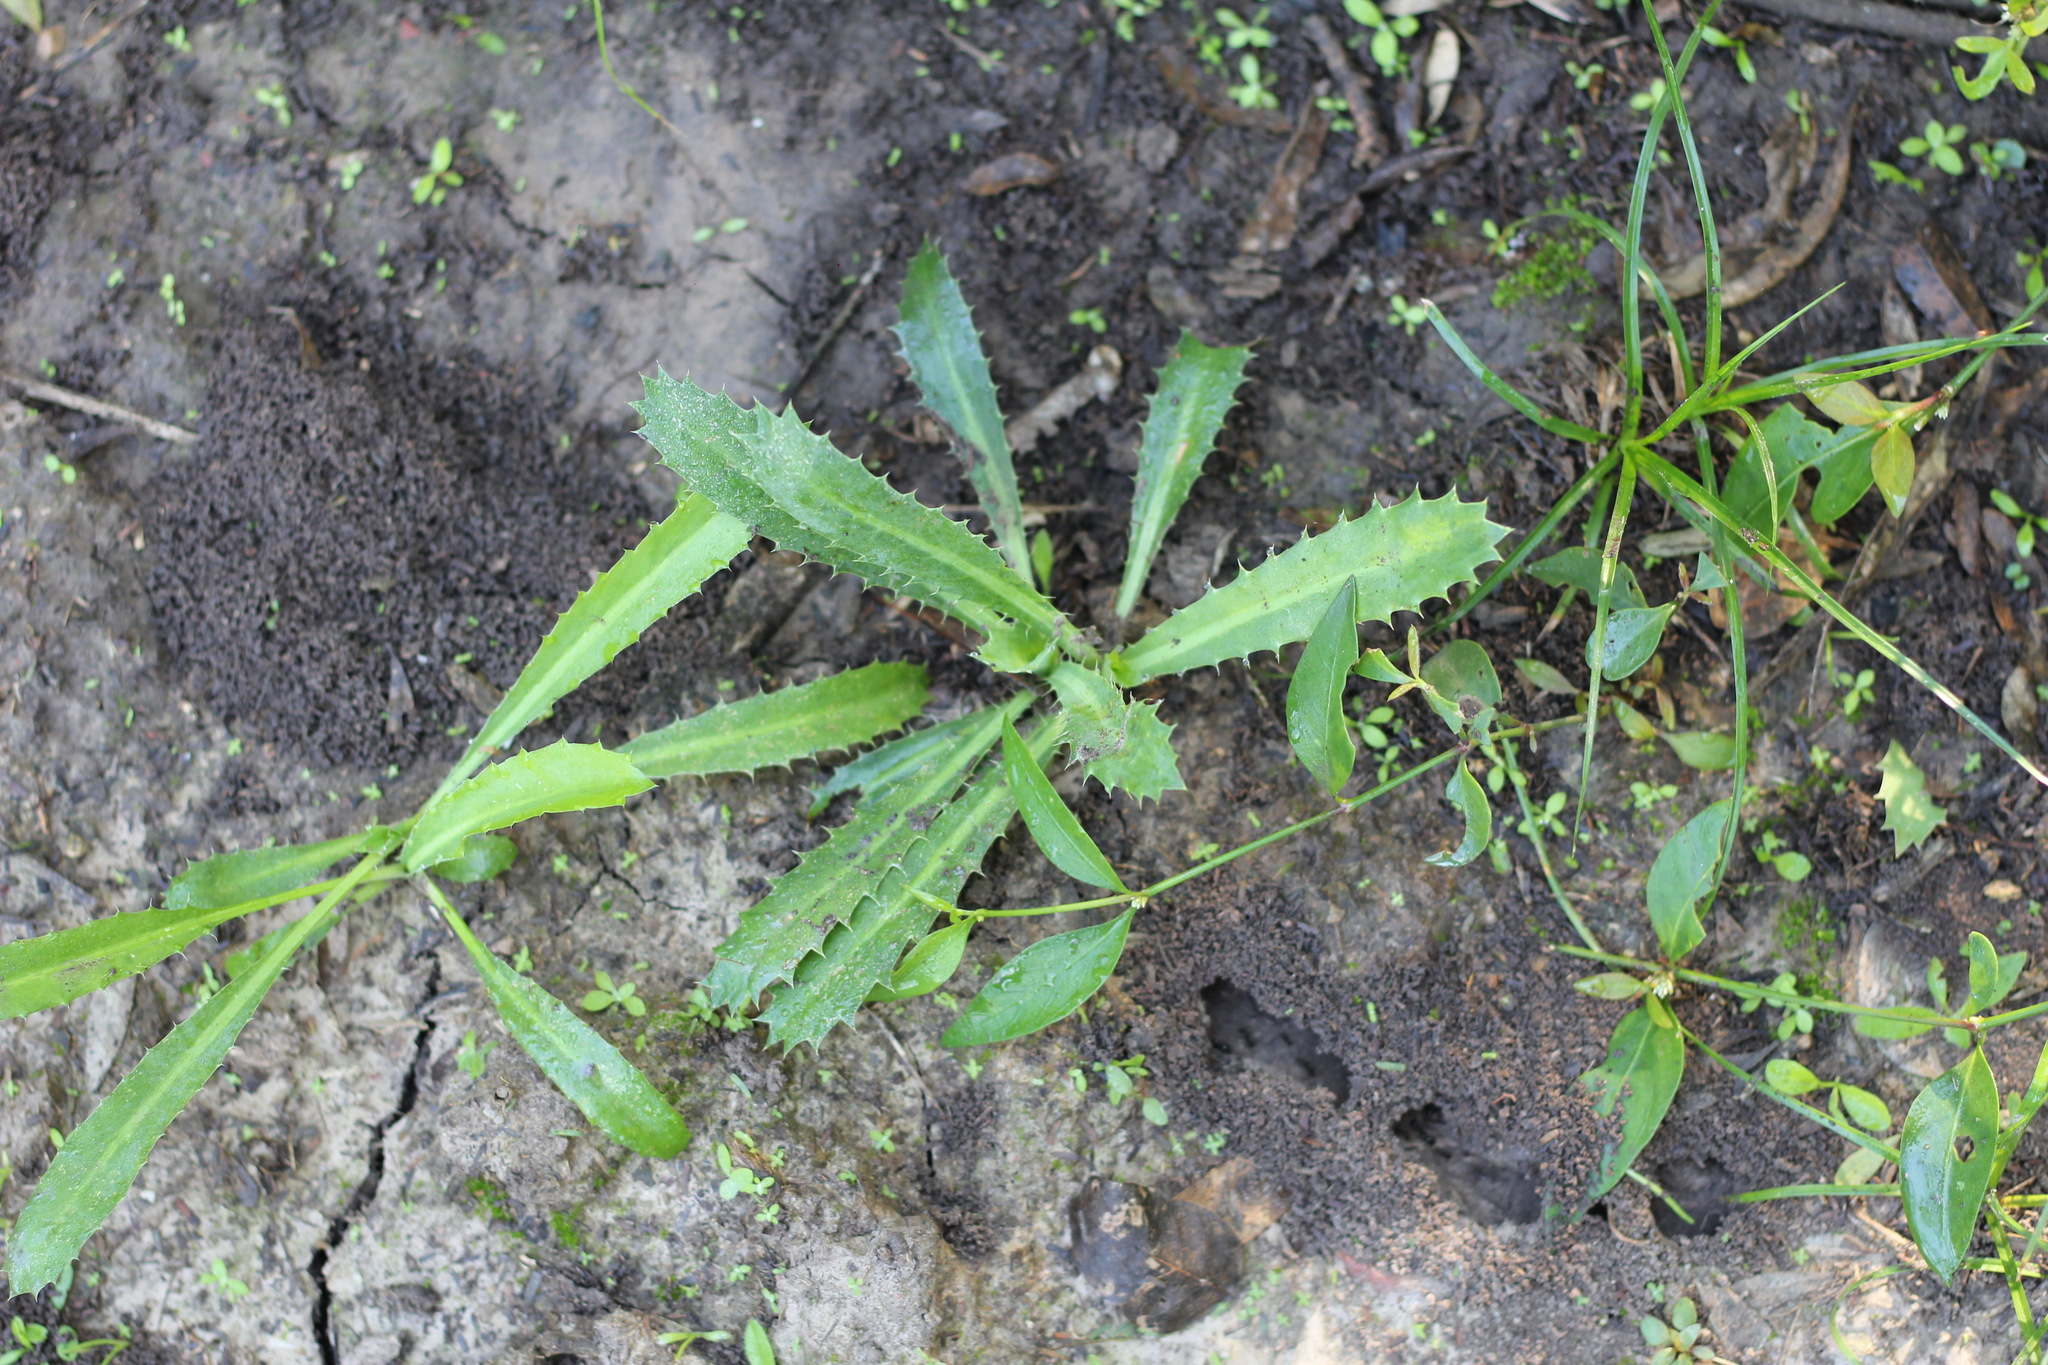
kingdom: Plantae
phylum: Tracheophyta
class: Magnoliopsida
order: Apiales
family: Apiaceae
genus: Eryngium
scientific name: Eryngium coronatum
